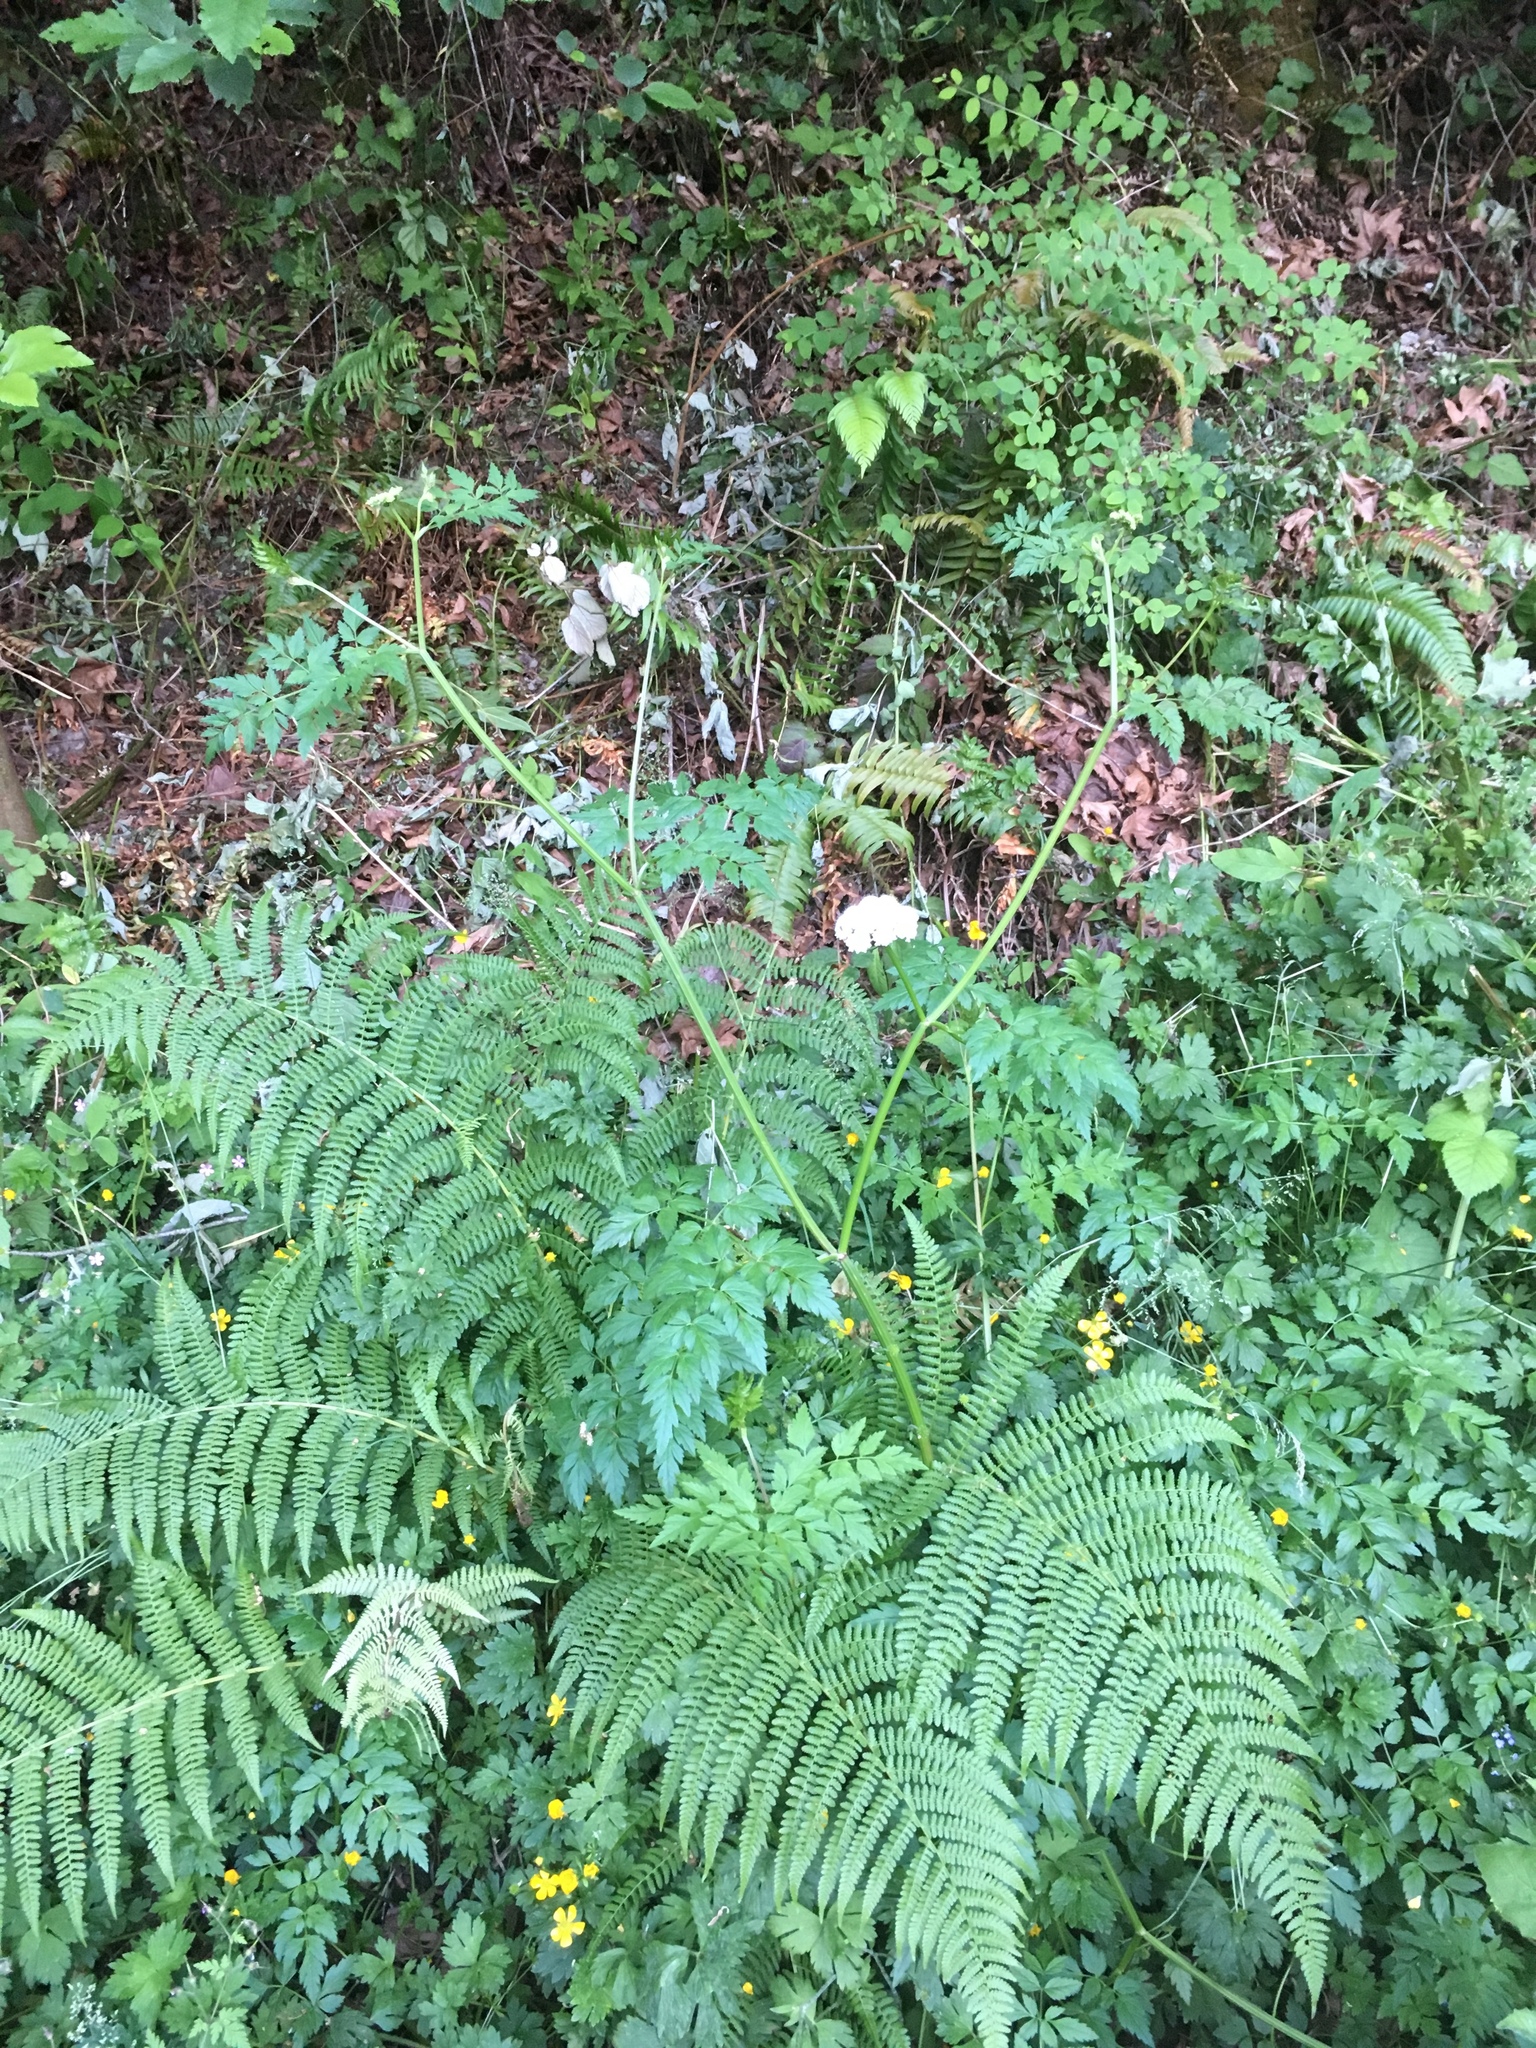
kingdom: Plantae
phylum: Tracheophyta
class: Magnoliopsida
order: Apiales
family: Apiaceae
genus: Oenanthe
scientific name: Oenanthe sarmentosa
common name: American water-parsley
